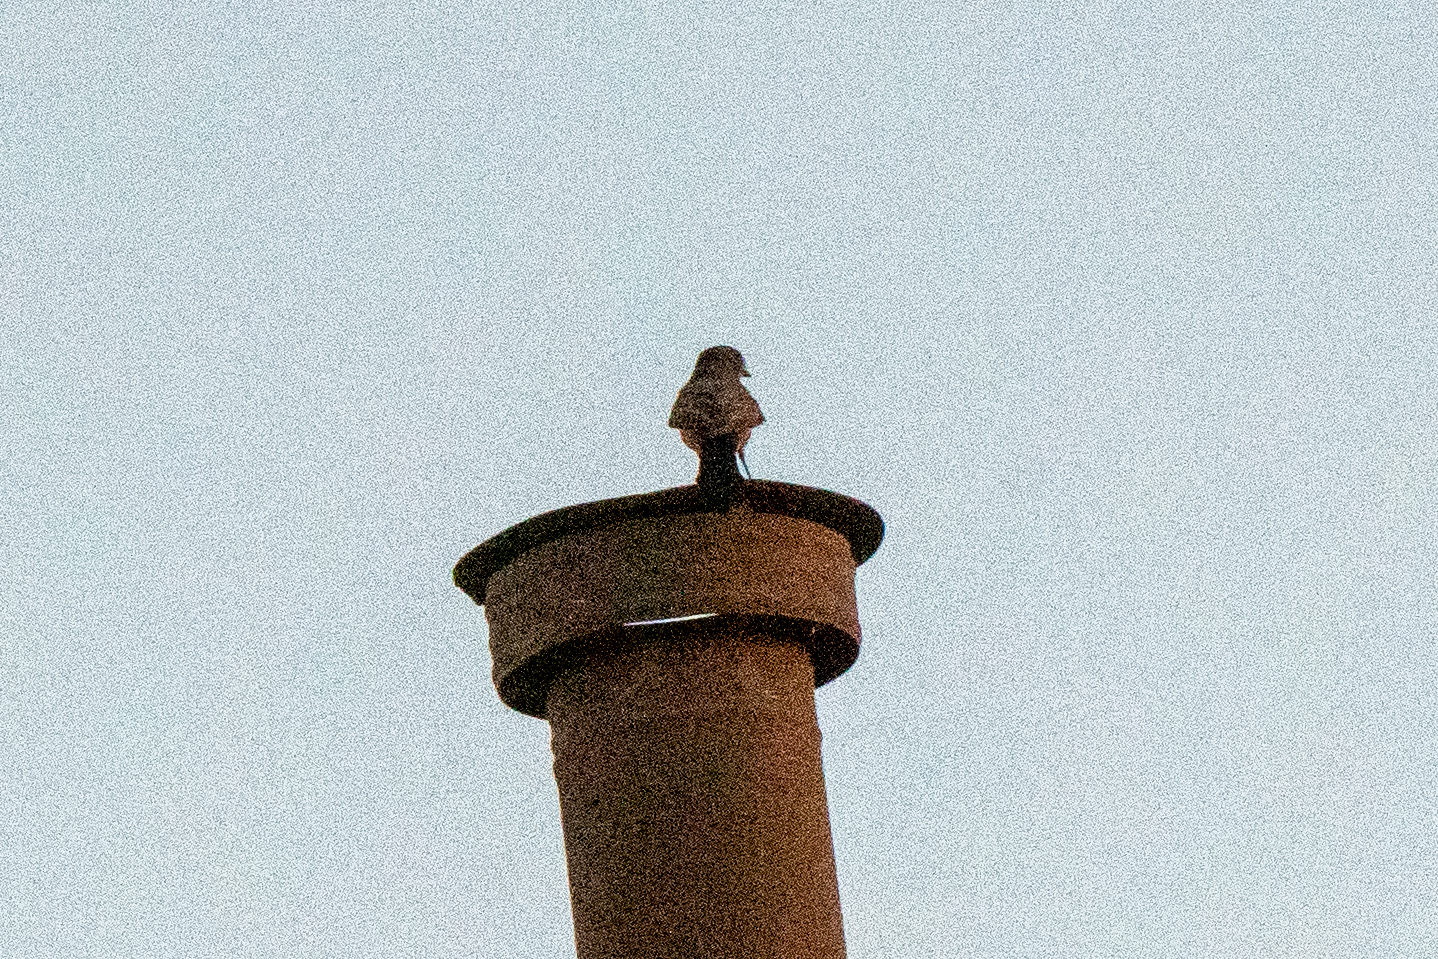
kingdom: Animalia
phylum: Chordata
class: Aves
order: Passeriformes
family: Tyrannidae
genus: Sayornis
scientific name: Sayornis saya
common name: Say's phoebe
